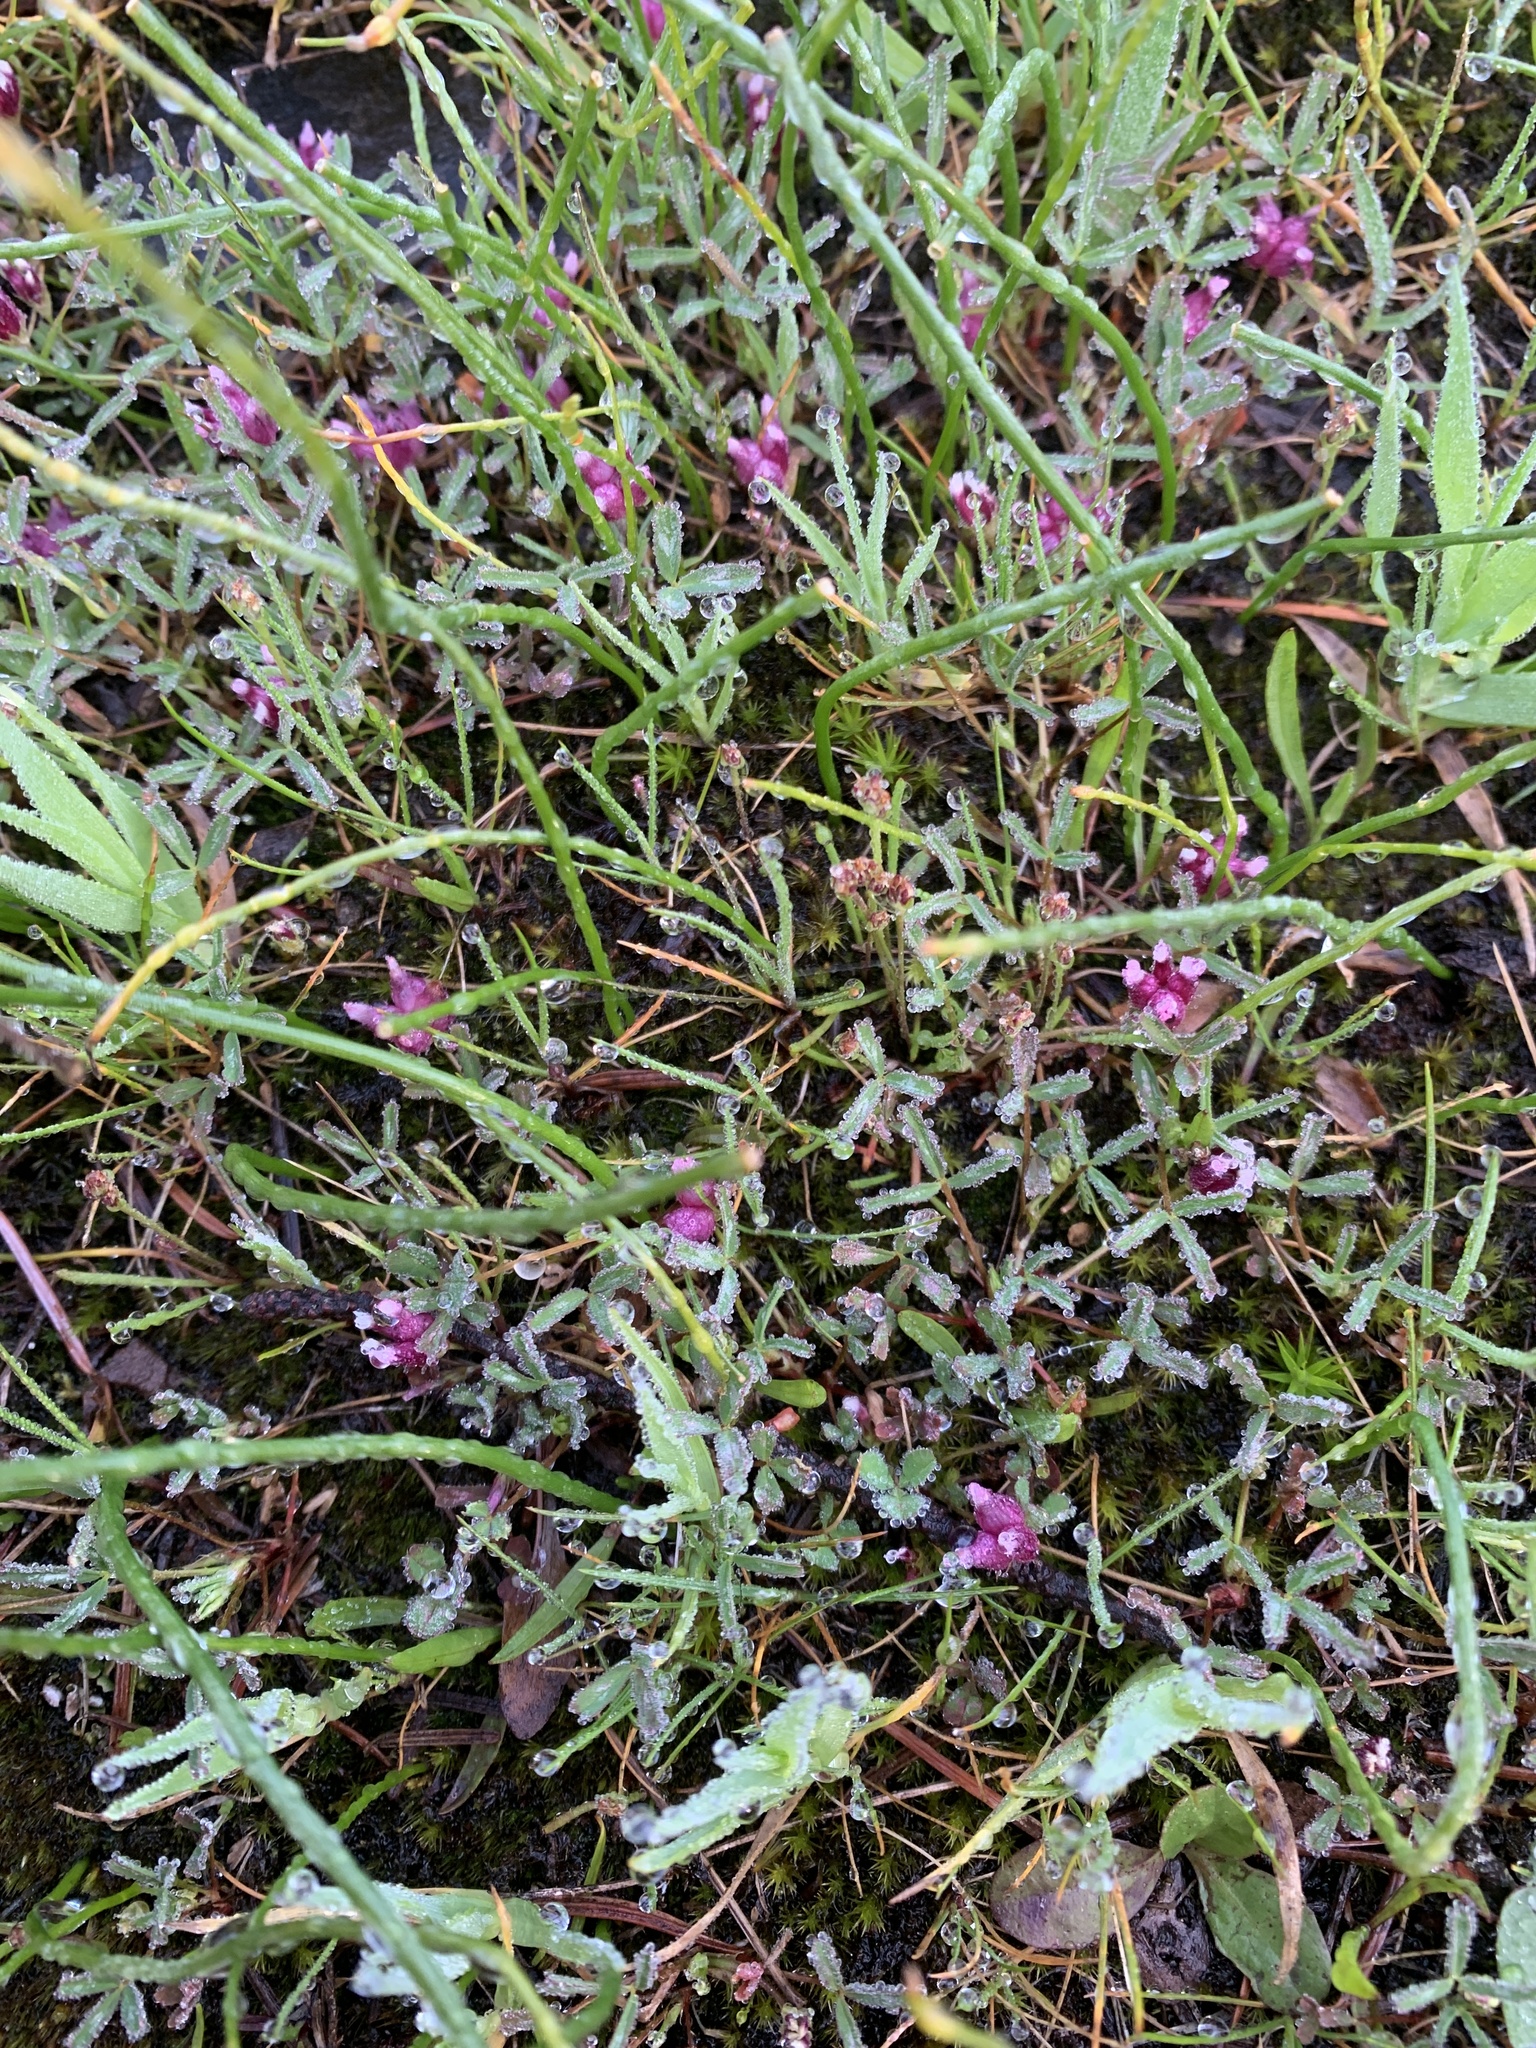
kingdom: Plantae
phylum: Tracheophyta
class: Magnoliopsida
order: Fabales
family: Fabaceae
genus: Trifolium
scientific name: Trifolium depauperatum
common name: Poverty clover
